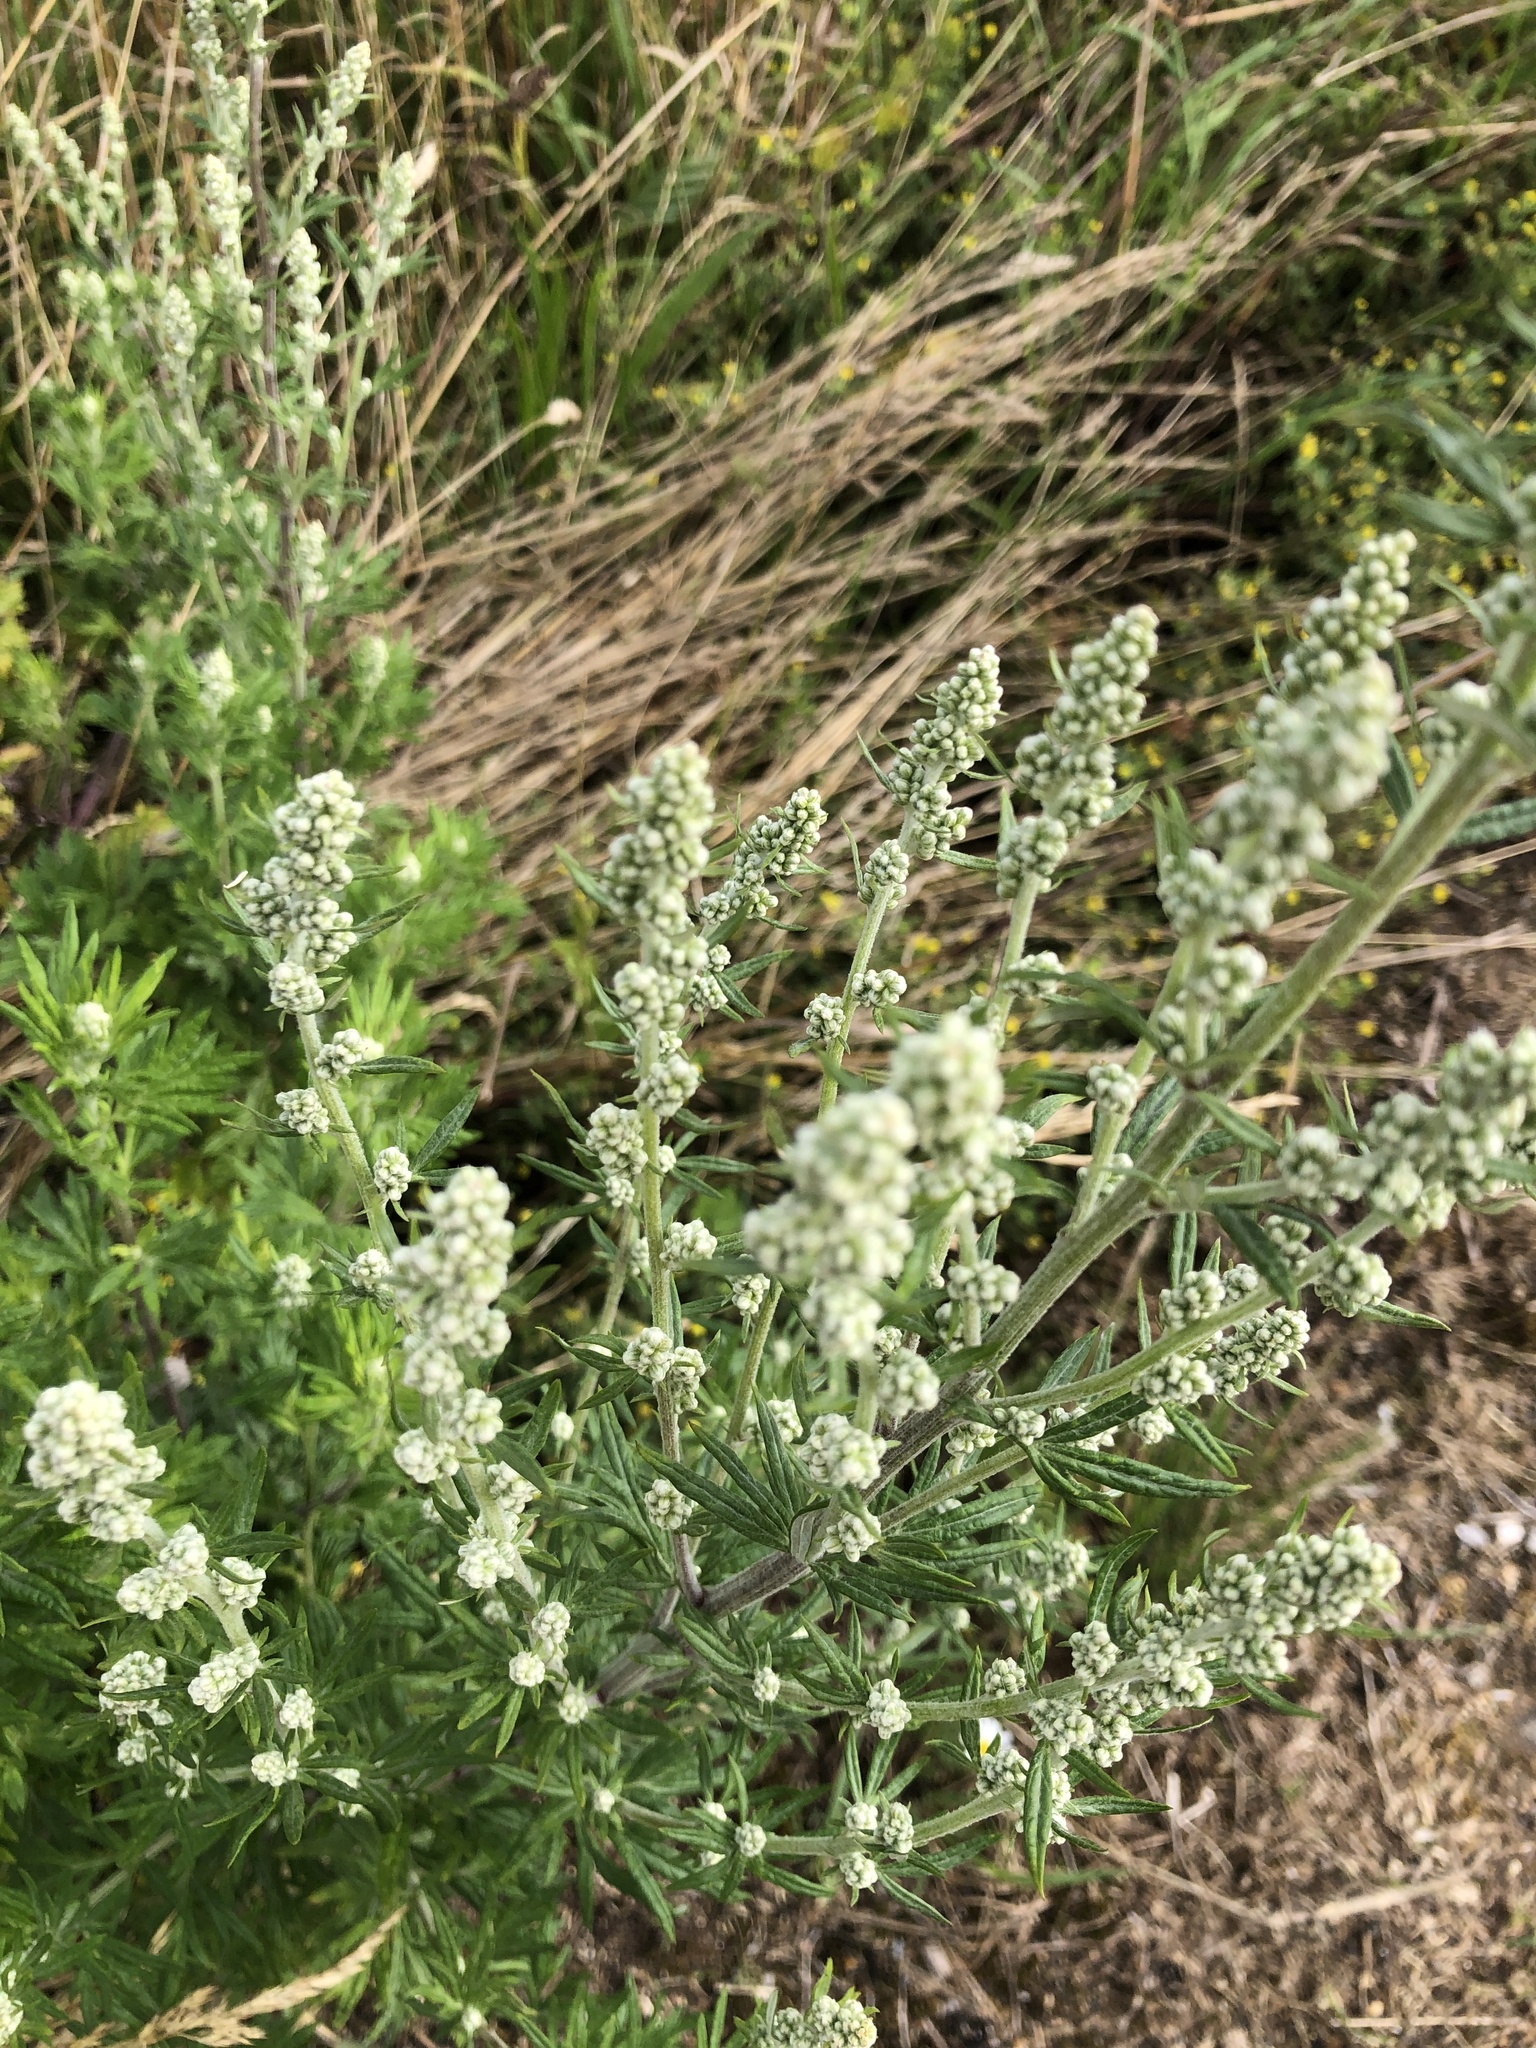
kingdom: Plantae
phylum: Tracheophyta
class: Magnoliopsida
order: Asterales
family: Asteraceae
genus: Artemisia
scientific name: Artemisia vulgaris
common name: Mugwort
